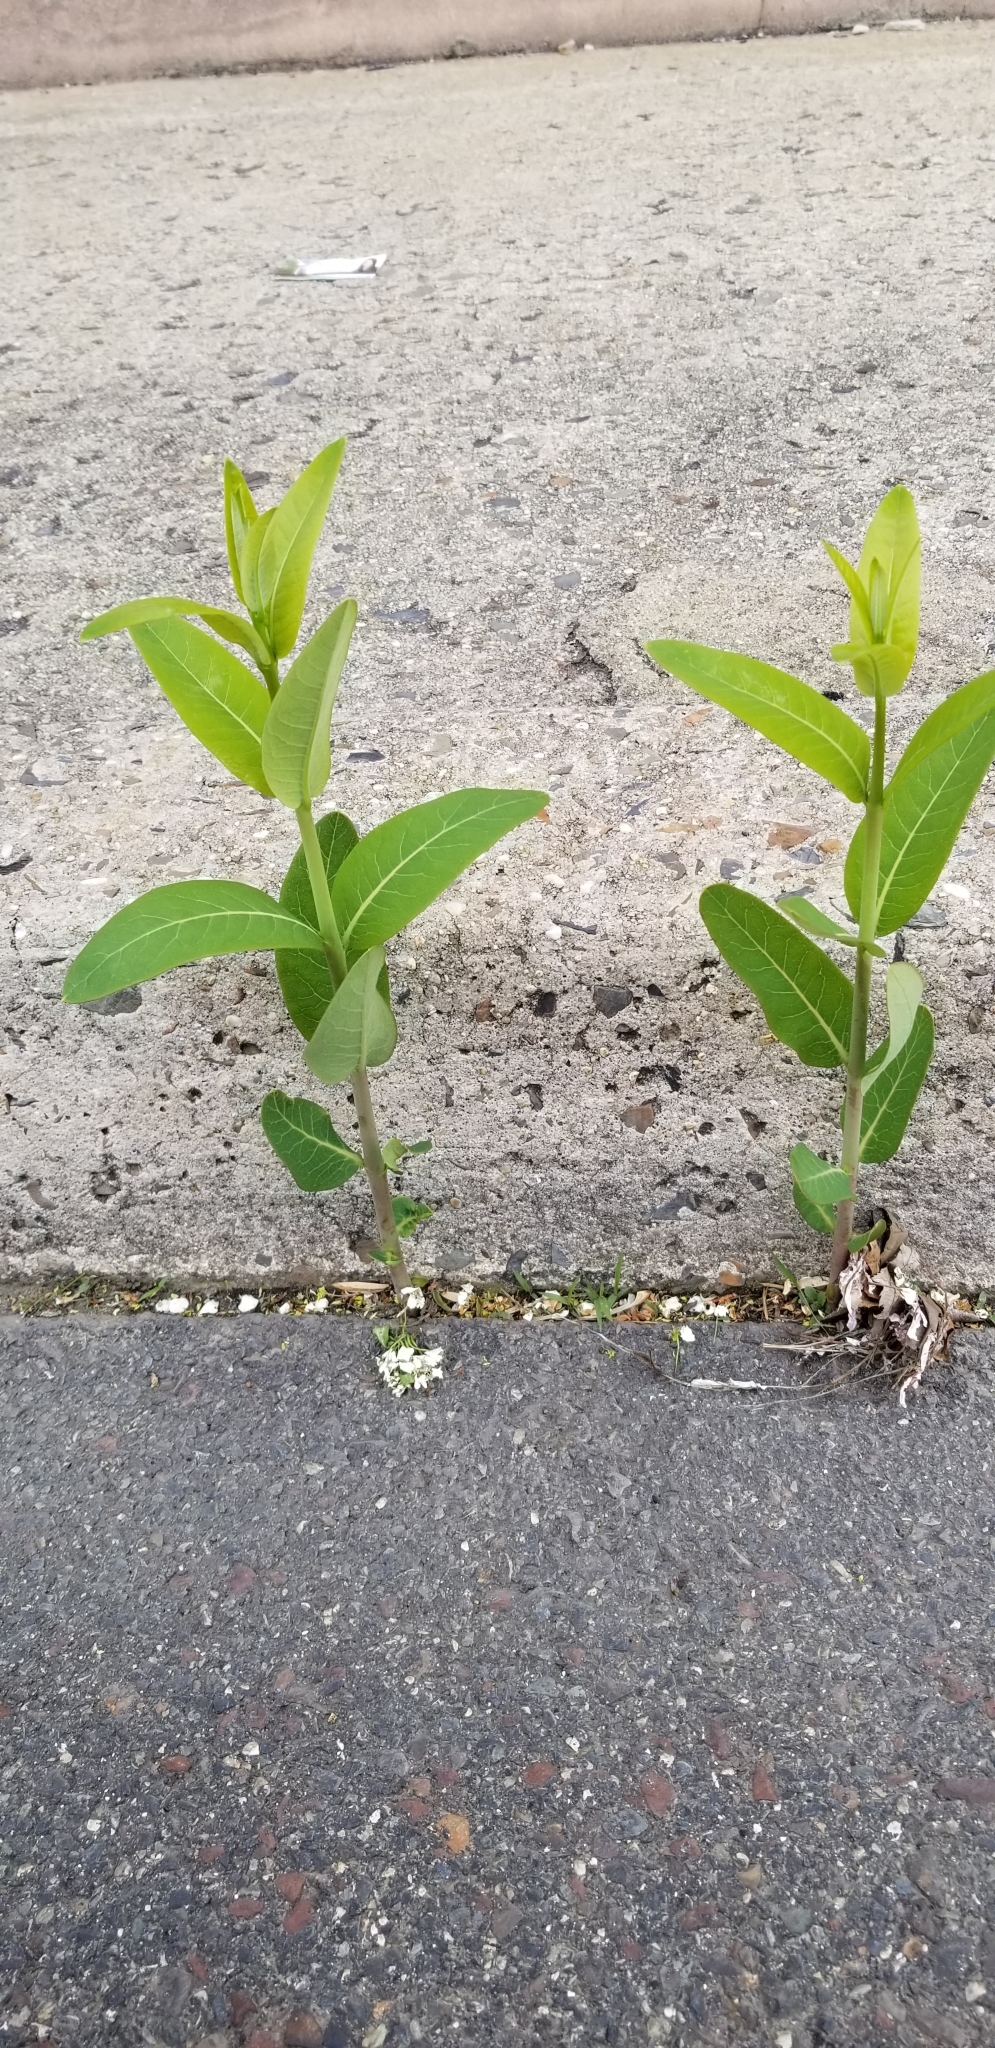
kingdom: Plantae
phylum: Tracheophyta
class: Magnoliopsida
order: Gentianales
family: Apocynaceae
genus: Apocynum
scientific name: Apocynum cannabinum
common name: Hemp dogbane
